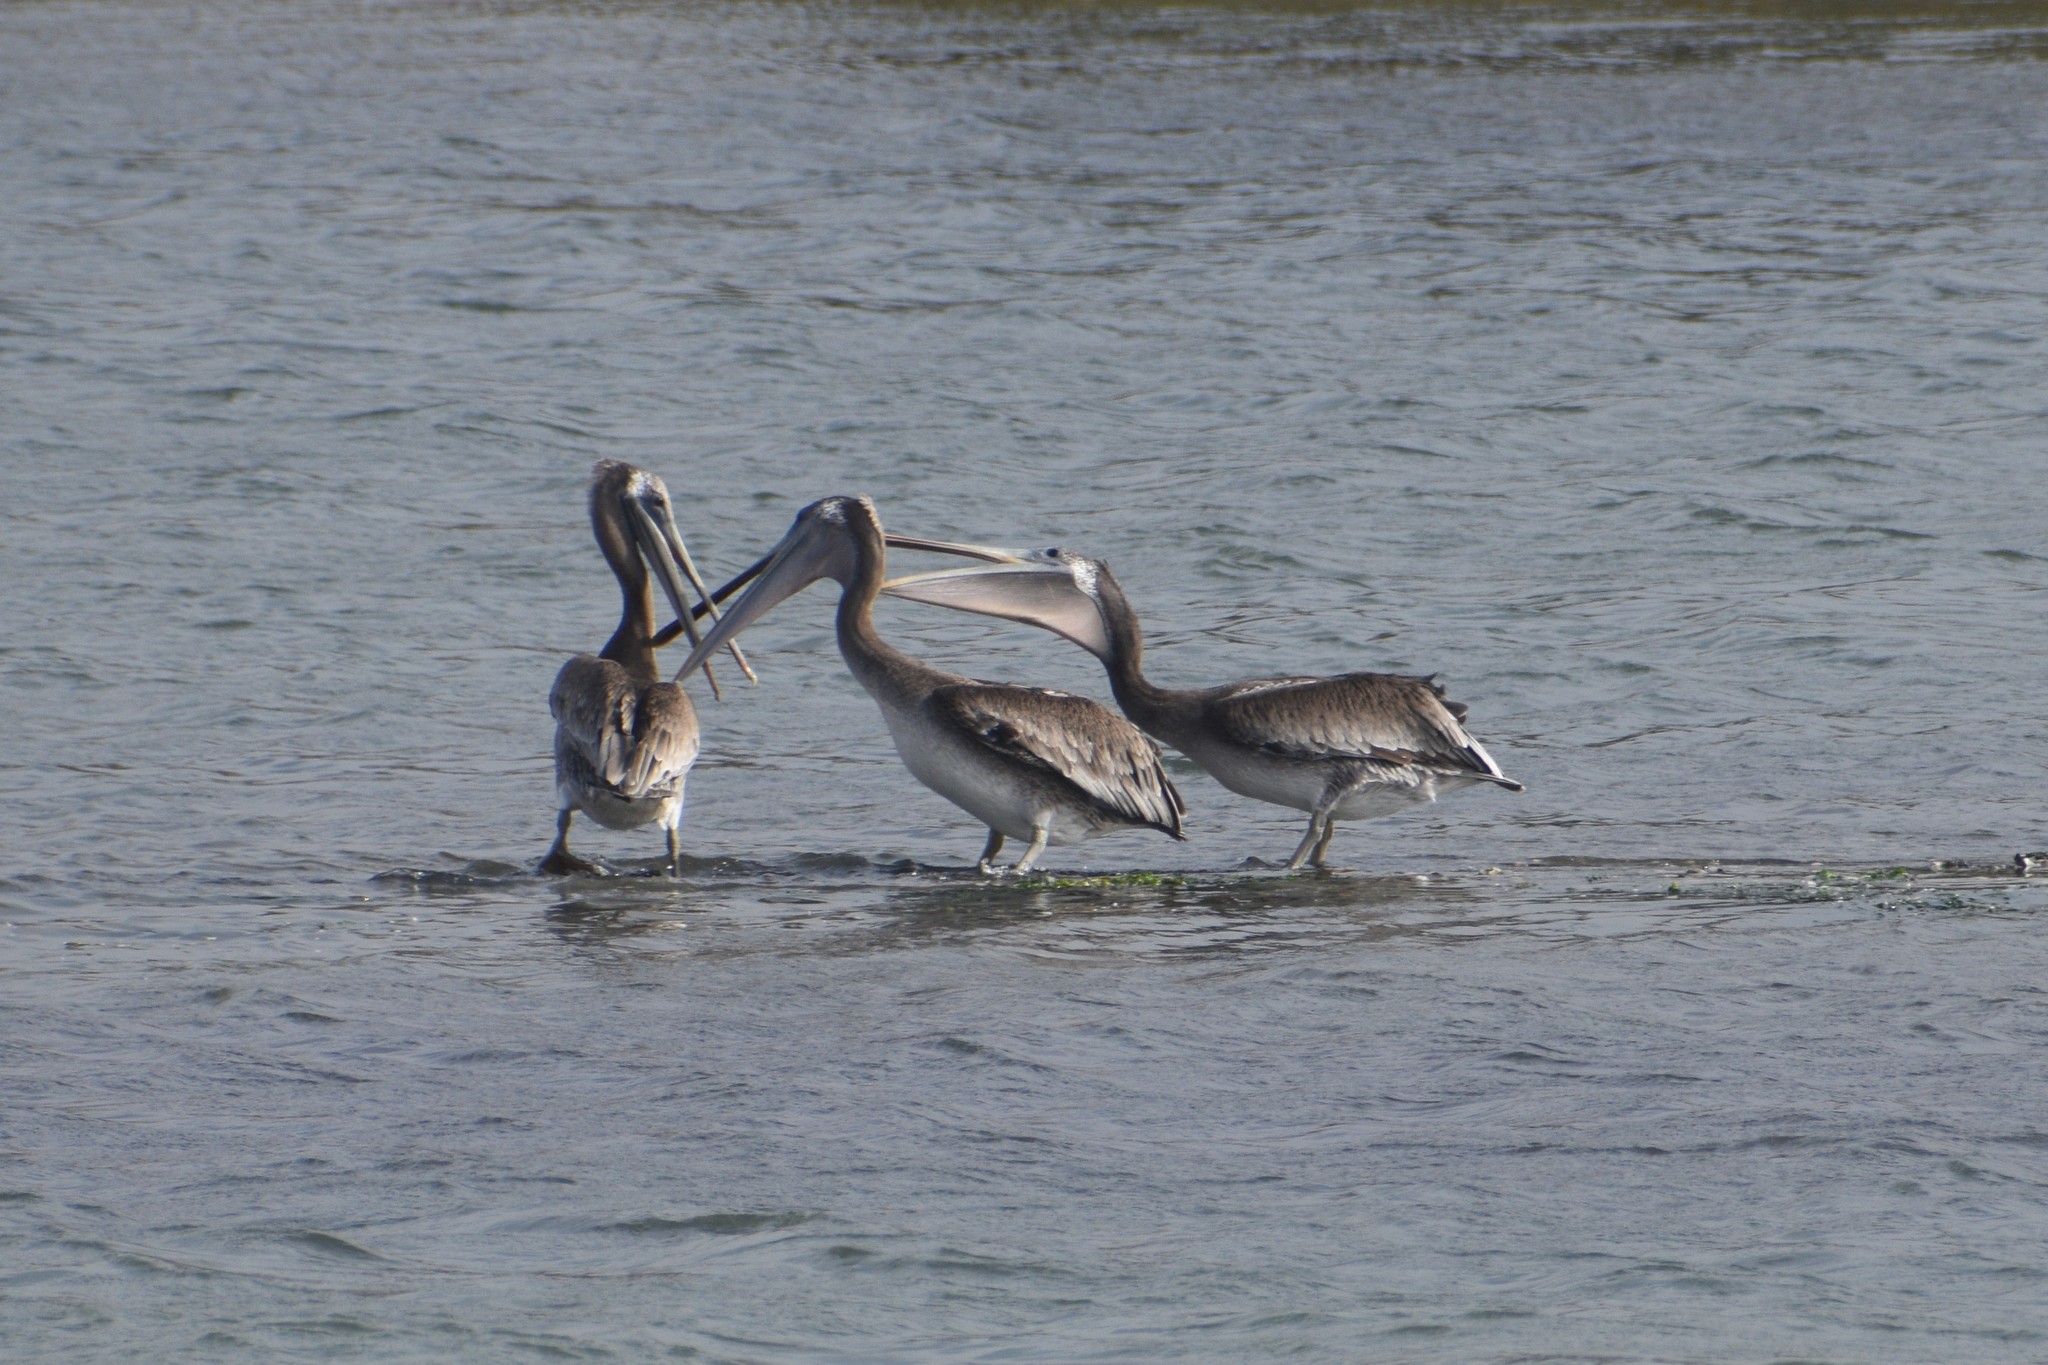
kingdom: Animalia
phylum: Chordata
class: Aves
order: Pelecaniformes
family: Pelecanidae
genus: Pelecanus
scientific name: Pelecanus occidentalis
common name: Brown pelican
